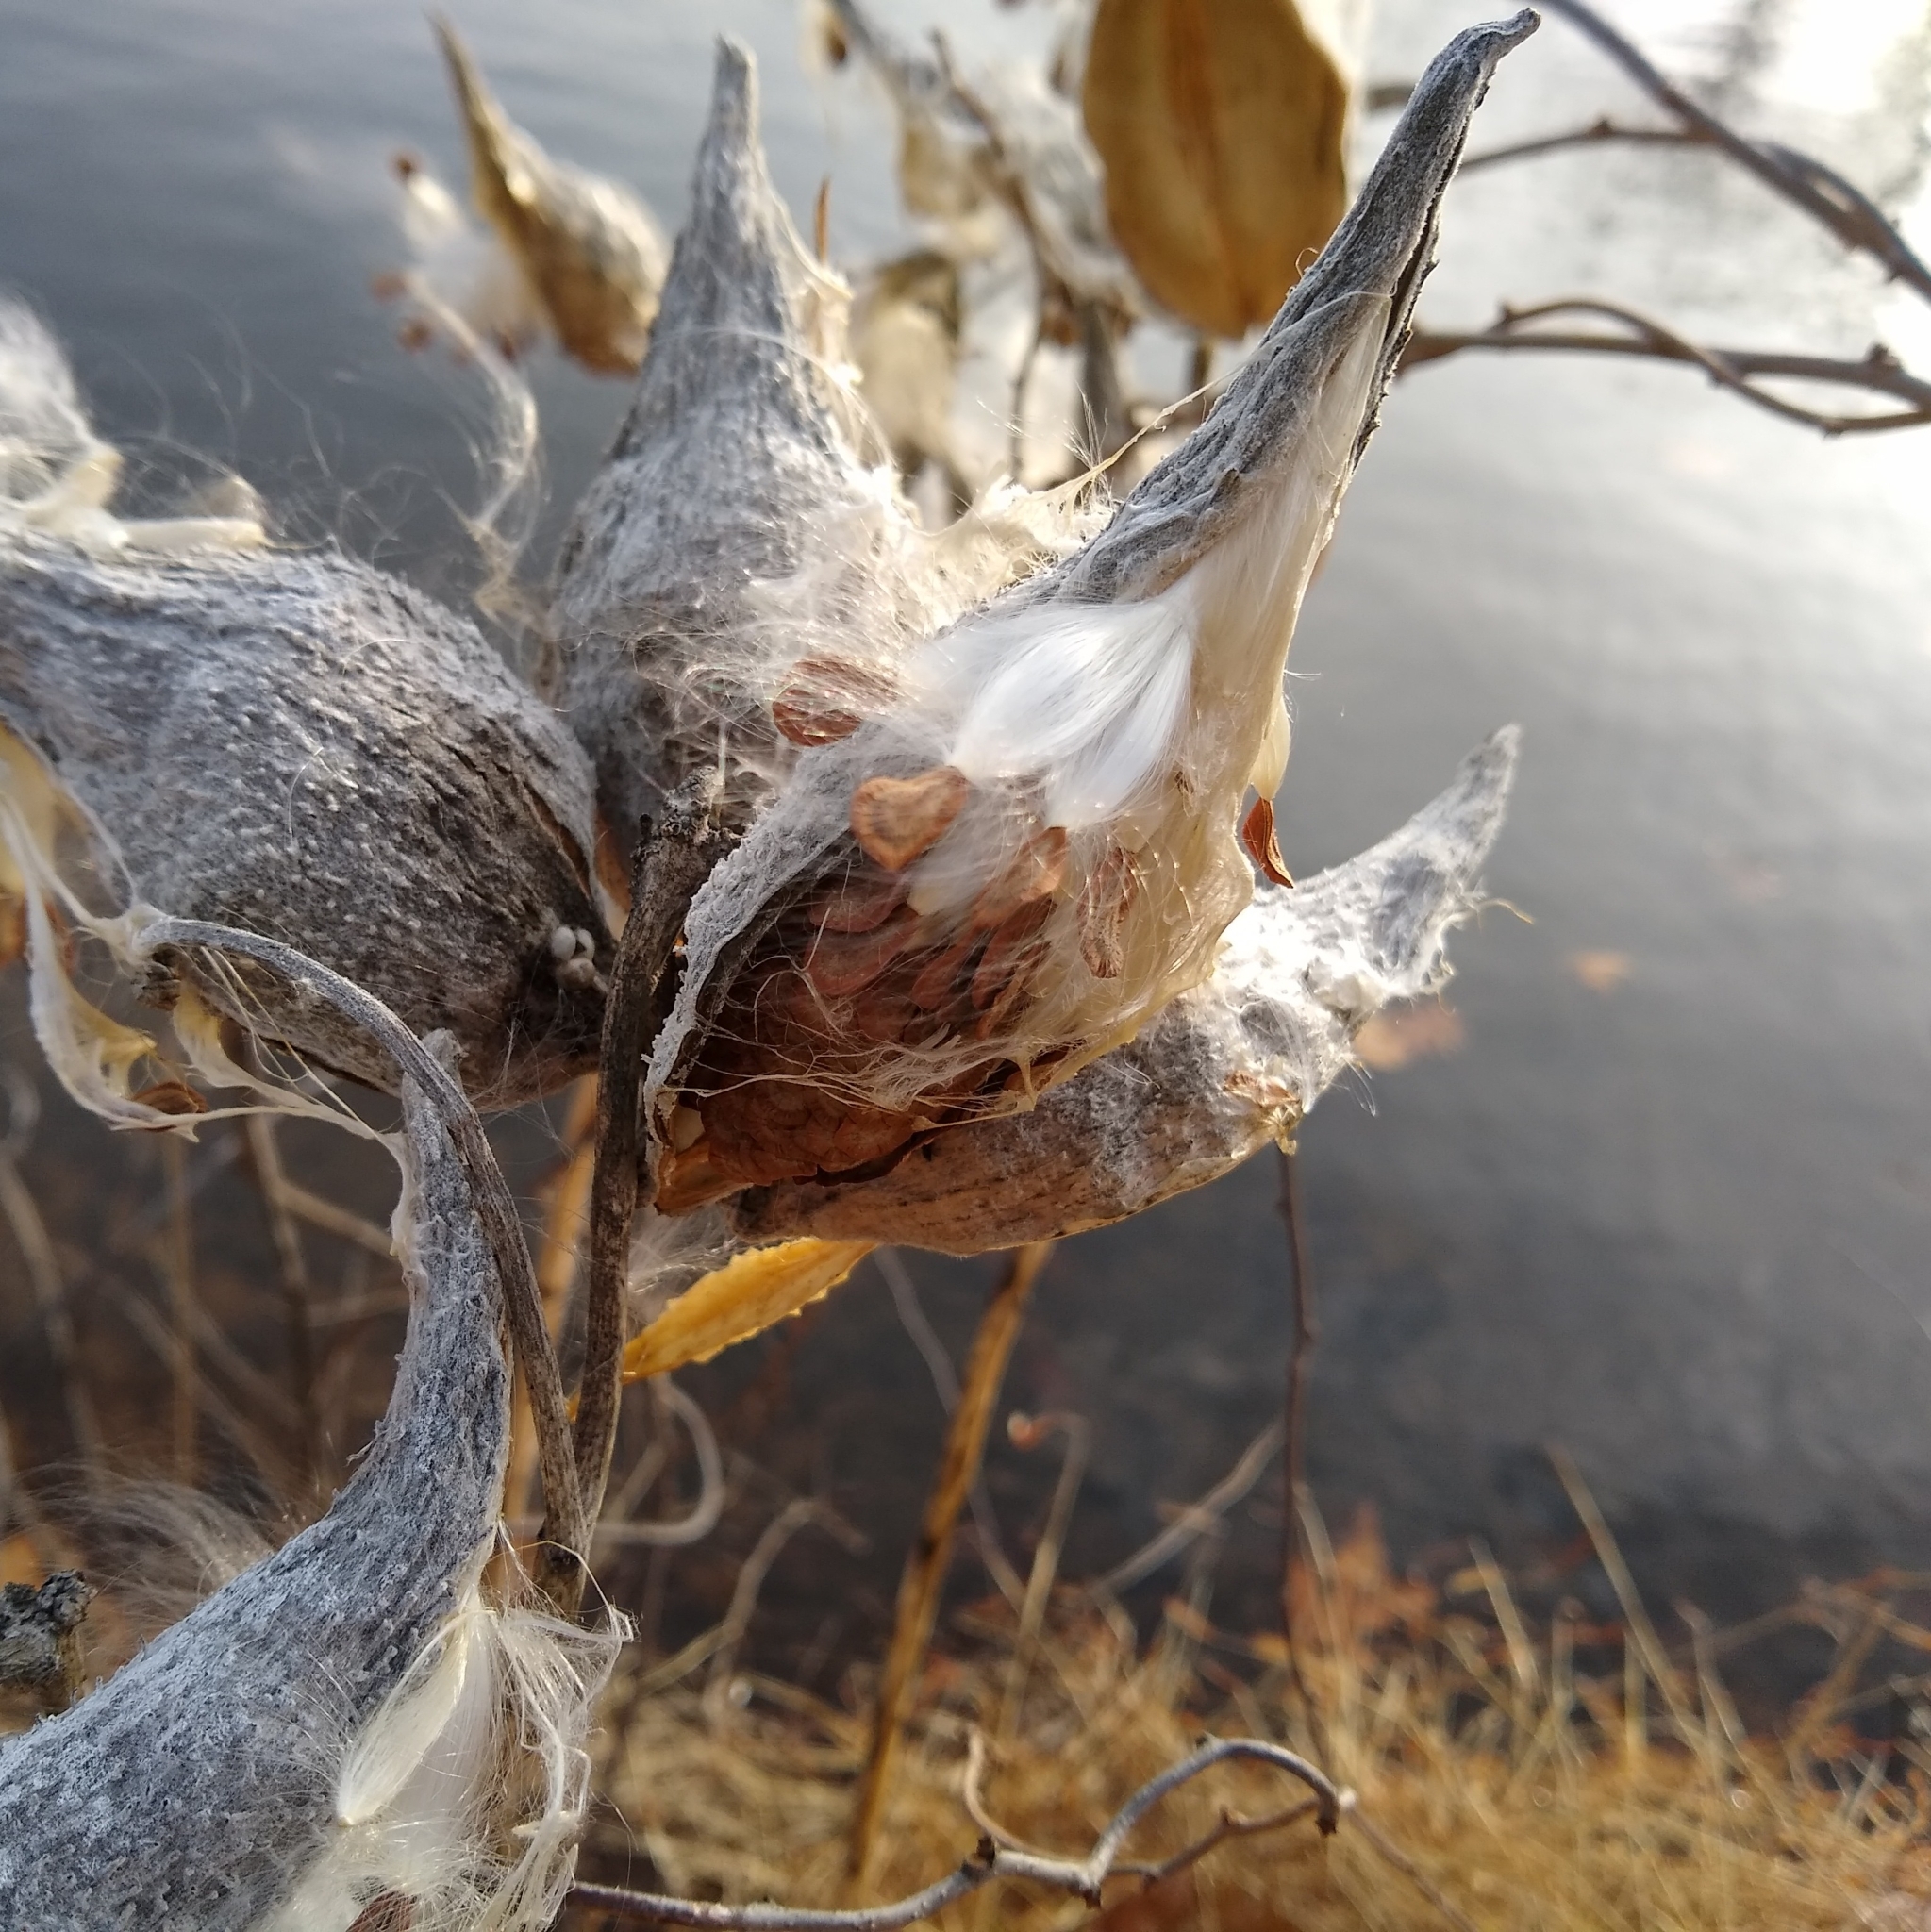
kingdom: Plantae
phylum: Tracheophyta
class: Magnoliopsida
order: Gentianales
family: Apocynaceae
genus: Asclepias
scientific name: Asclepias syriaca
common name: Common milkweed
